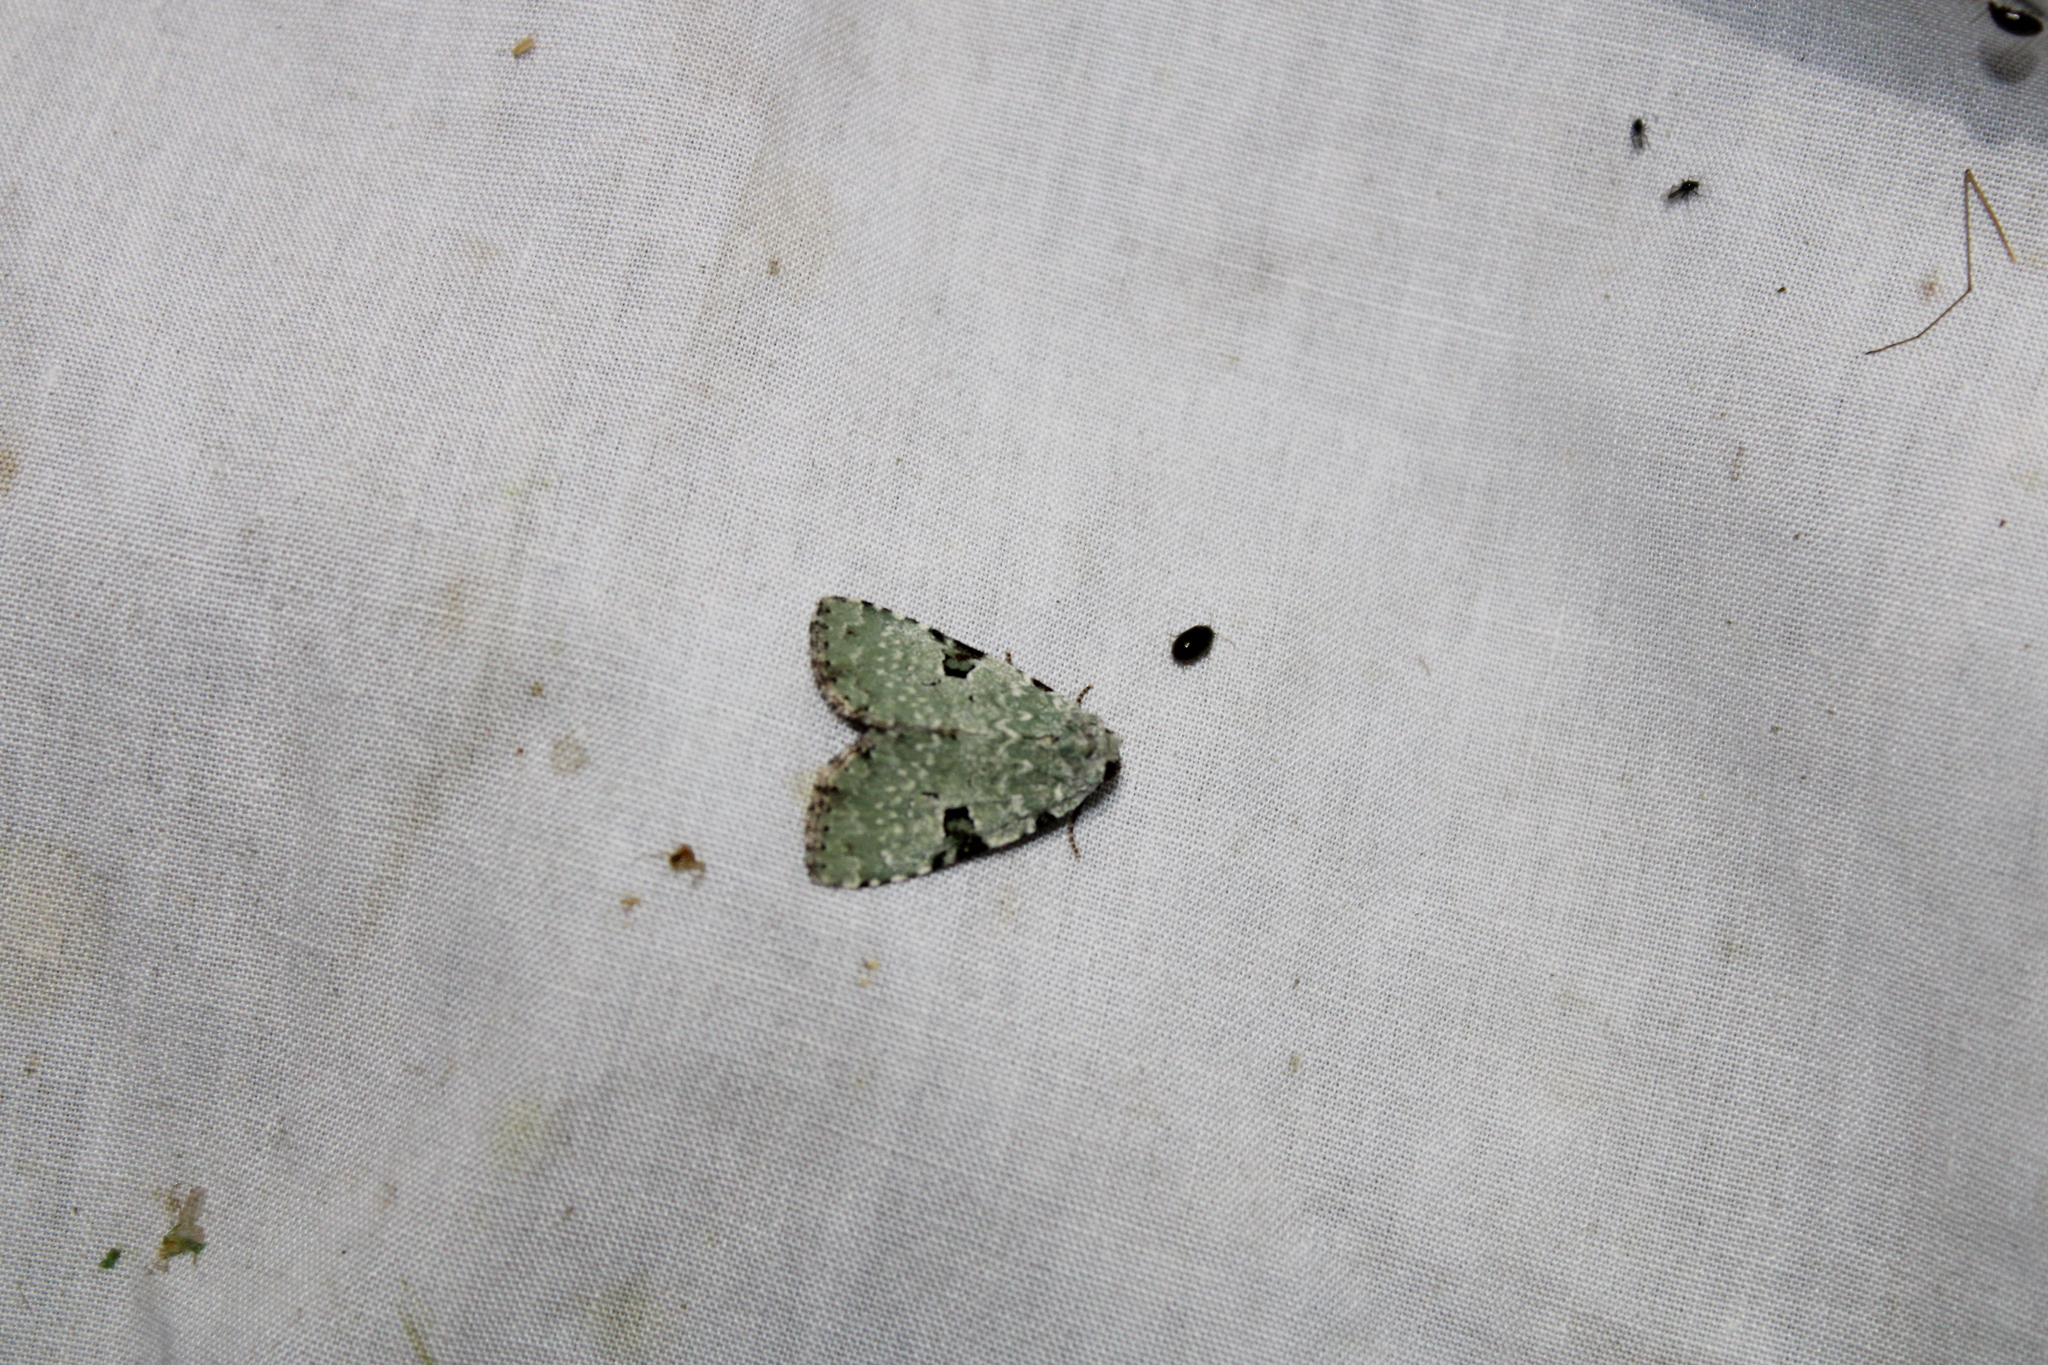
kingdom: Animalia
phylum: Arthropoda
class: Insecta
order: Lepidoptera
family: Noctuidae
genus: Leuconycta
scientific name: Leuconycta diphteroides
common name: Green leuconycta moth
